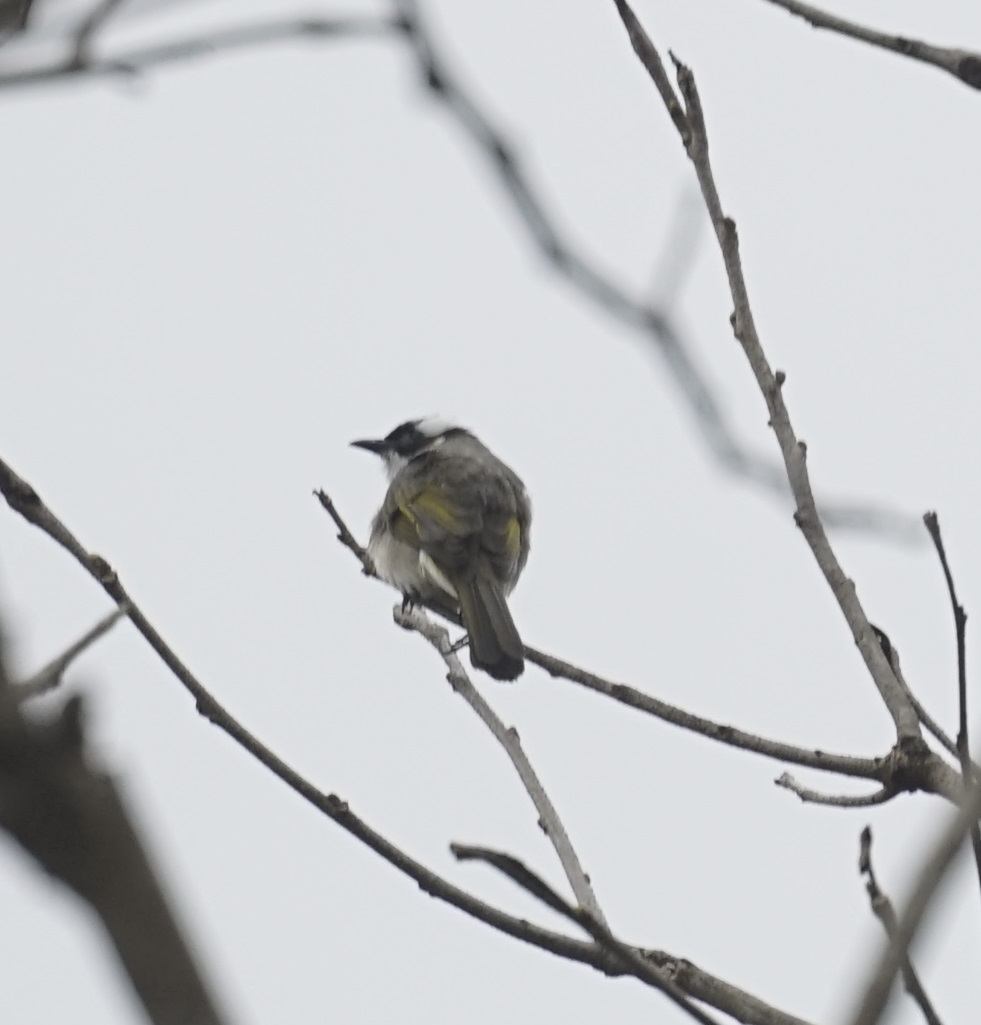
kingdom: Animalia
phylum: Chordata
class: Aves
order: Passeriformes
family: Pycnonotidae
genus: Pycnonotus
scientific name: Pycnonotus sinensis
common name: Light-vented bulbul
